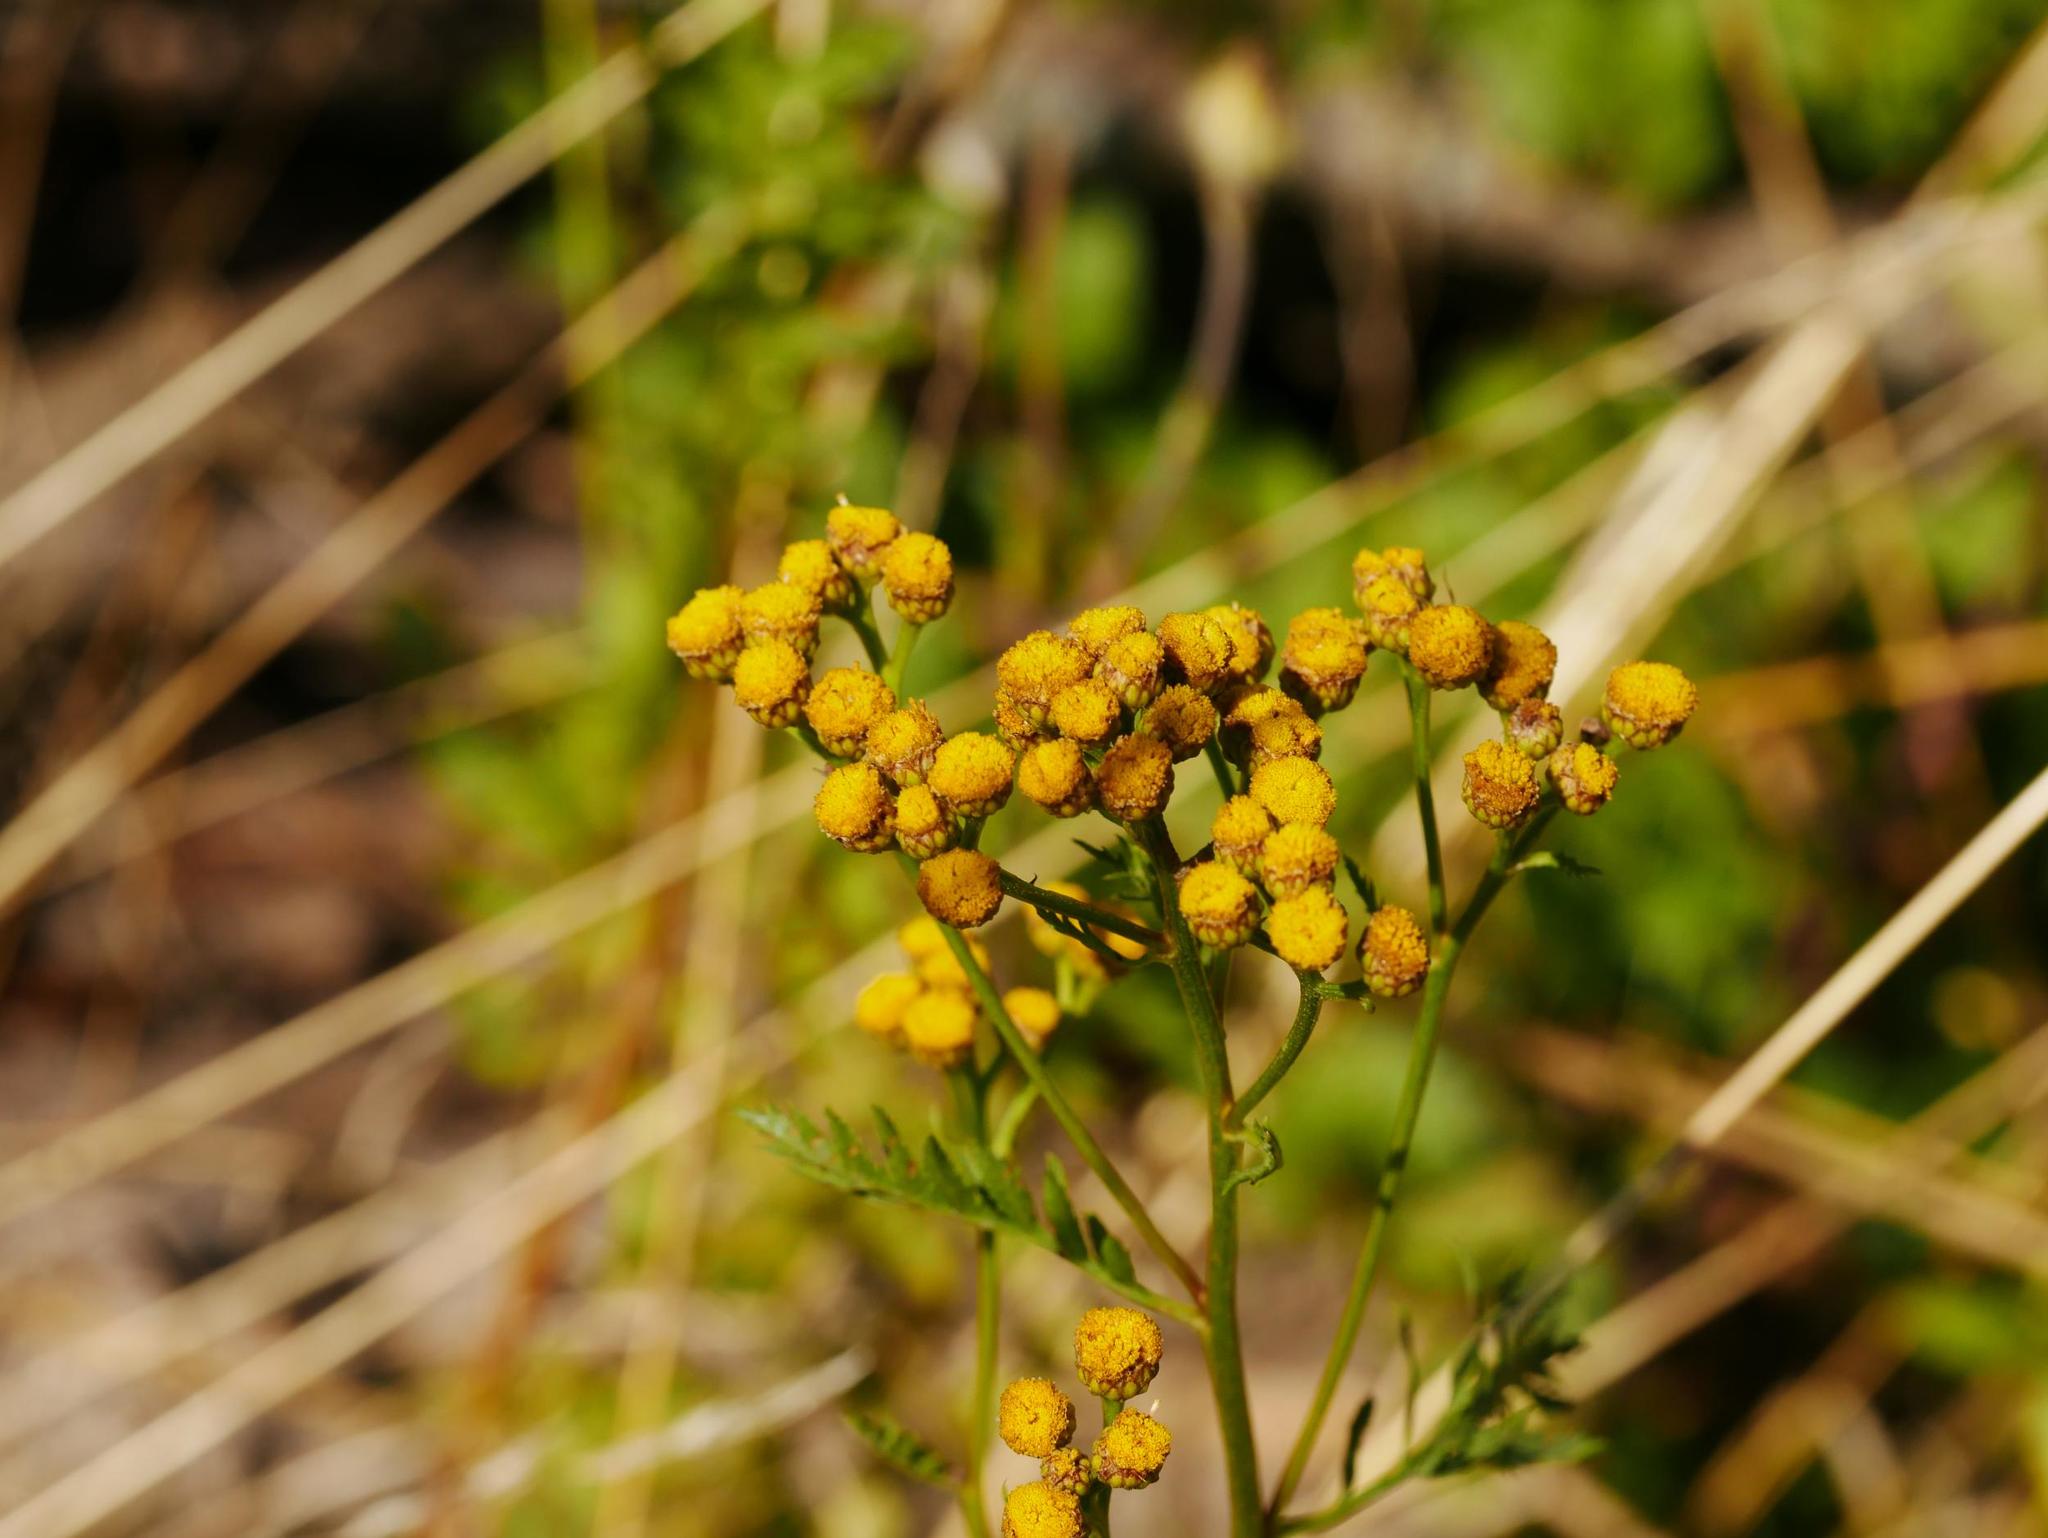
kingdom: Plantae
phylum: Tracheophyta
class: Magnoliopsida
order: Asterales
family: Asteraceae
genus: Tanacetum
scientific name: Tanacetum vulgare
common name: Common tansy
